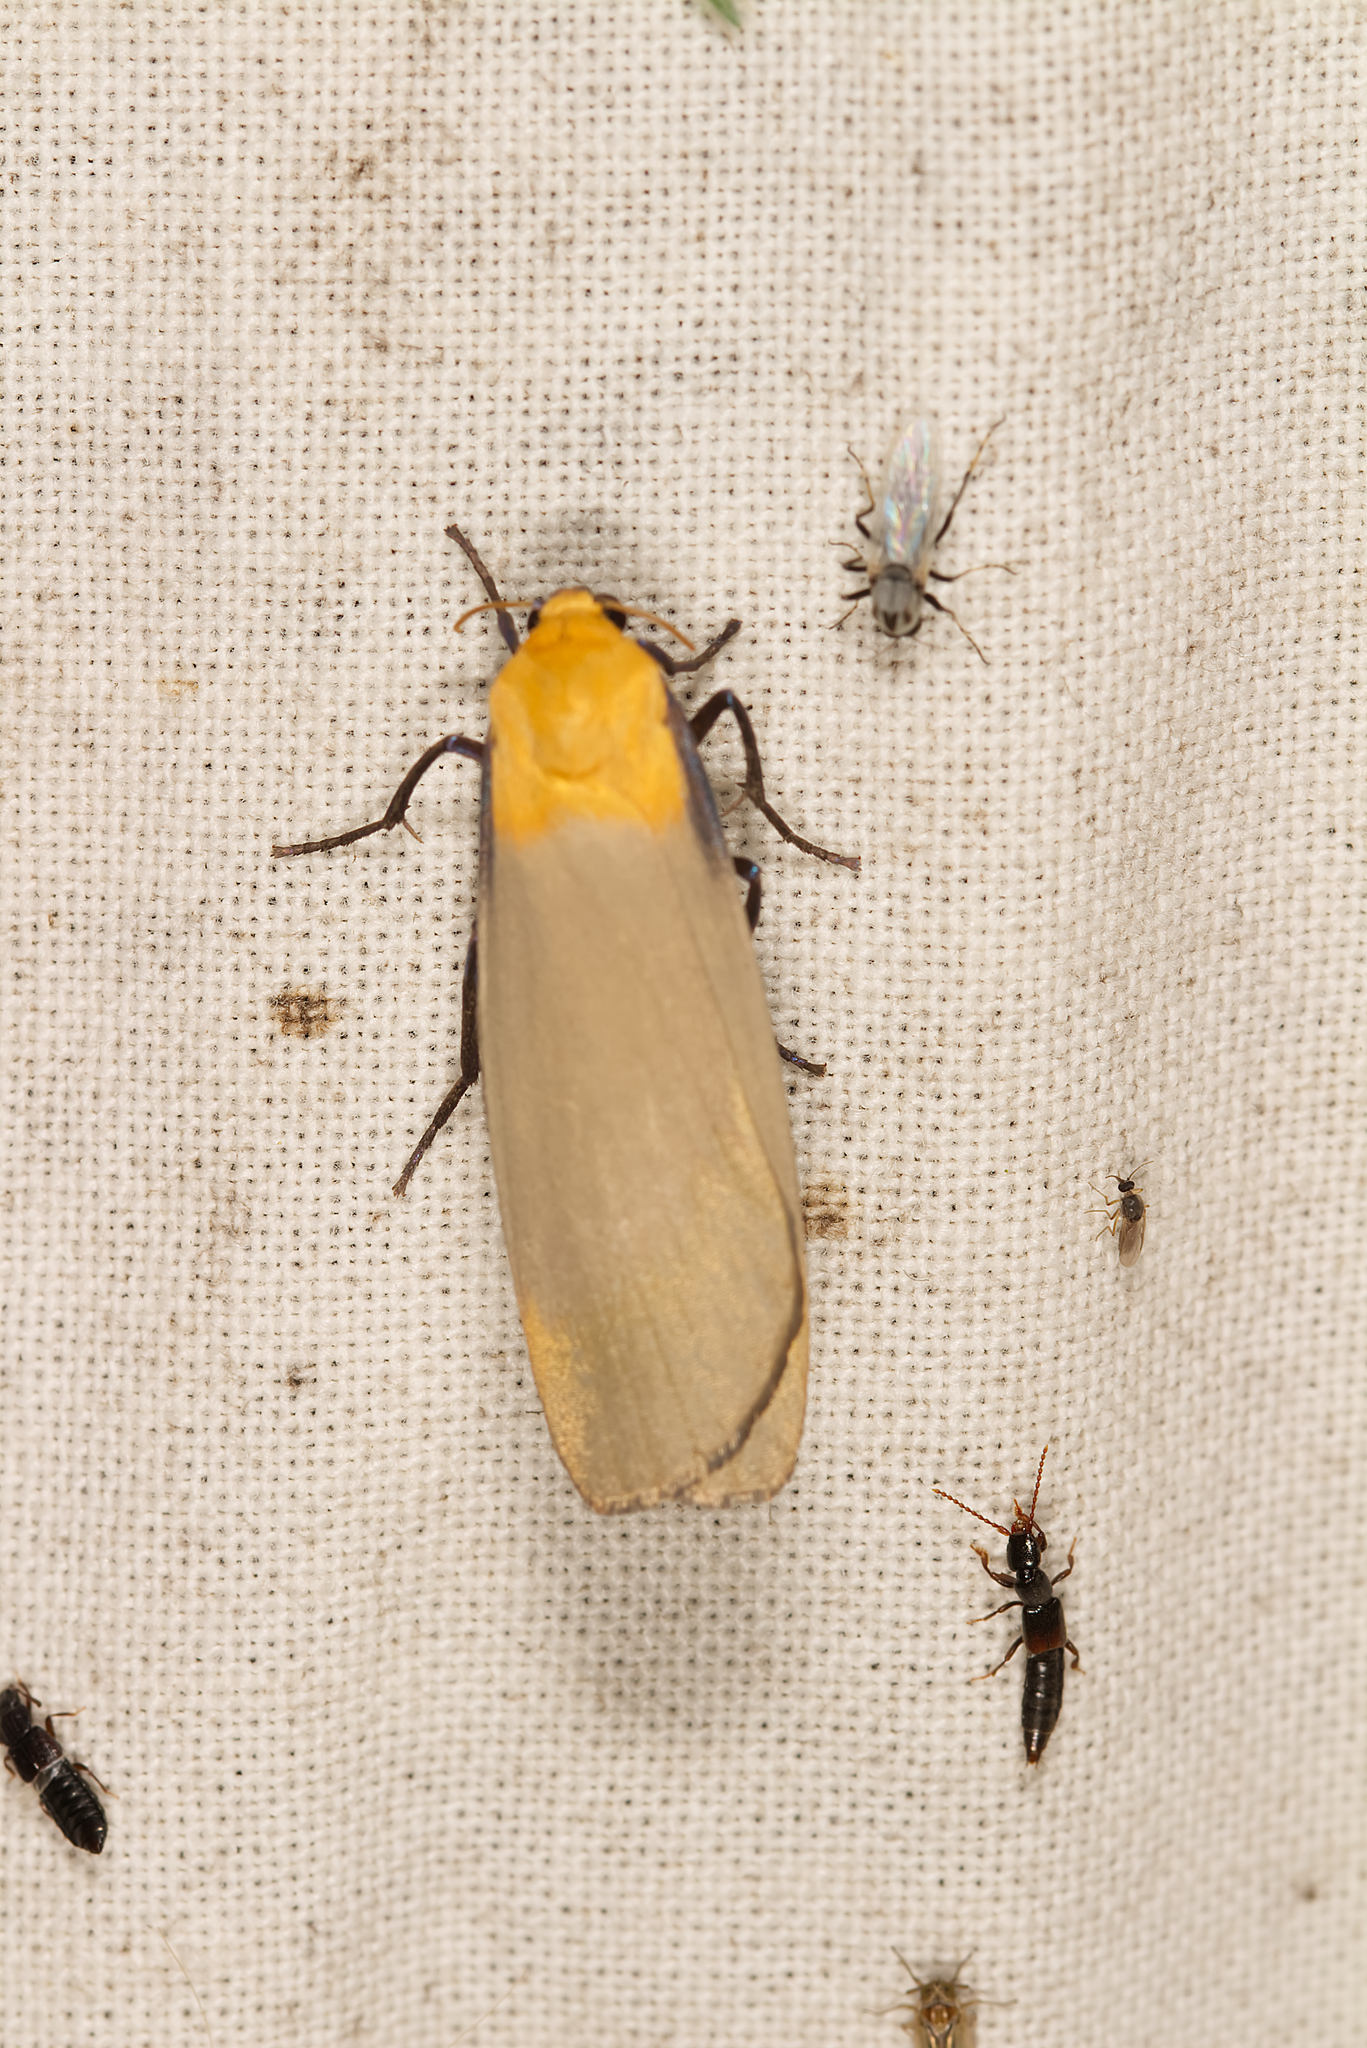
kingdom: Animalia
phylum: Arthropoda
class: Insecta
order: Lepidoptera
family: Erebidae
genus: Lithosia
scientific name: Lithosia quadra
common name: Four-spotted footman
